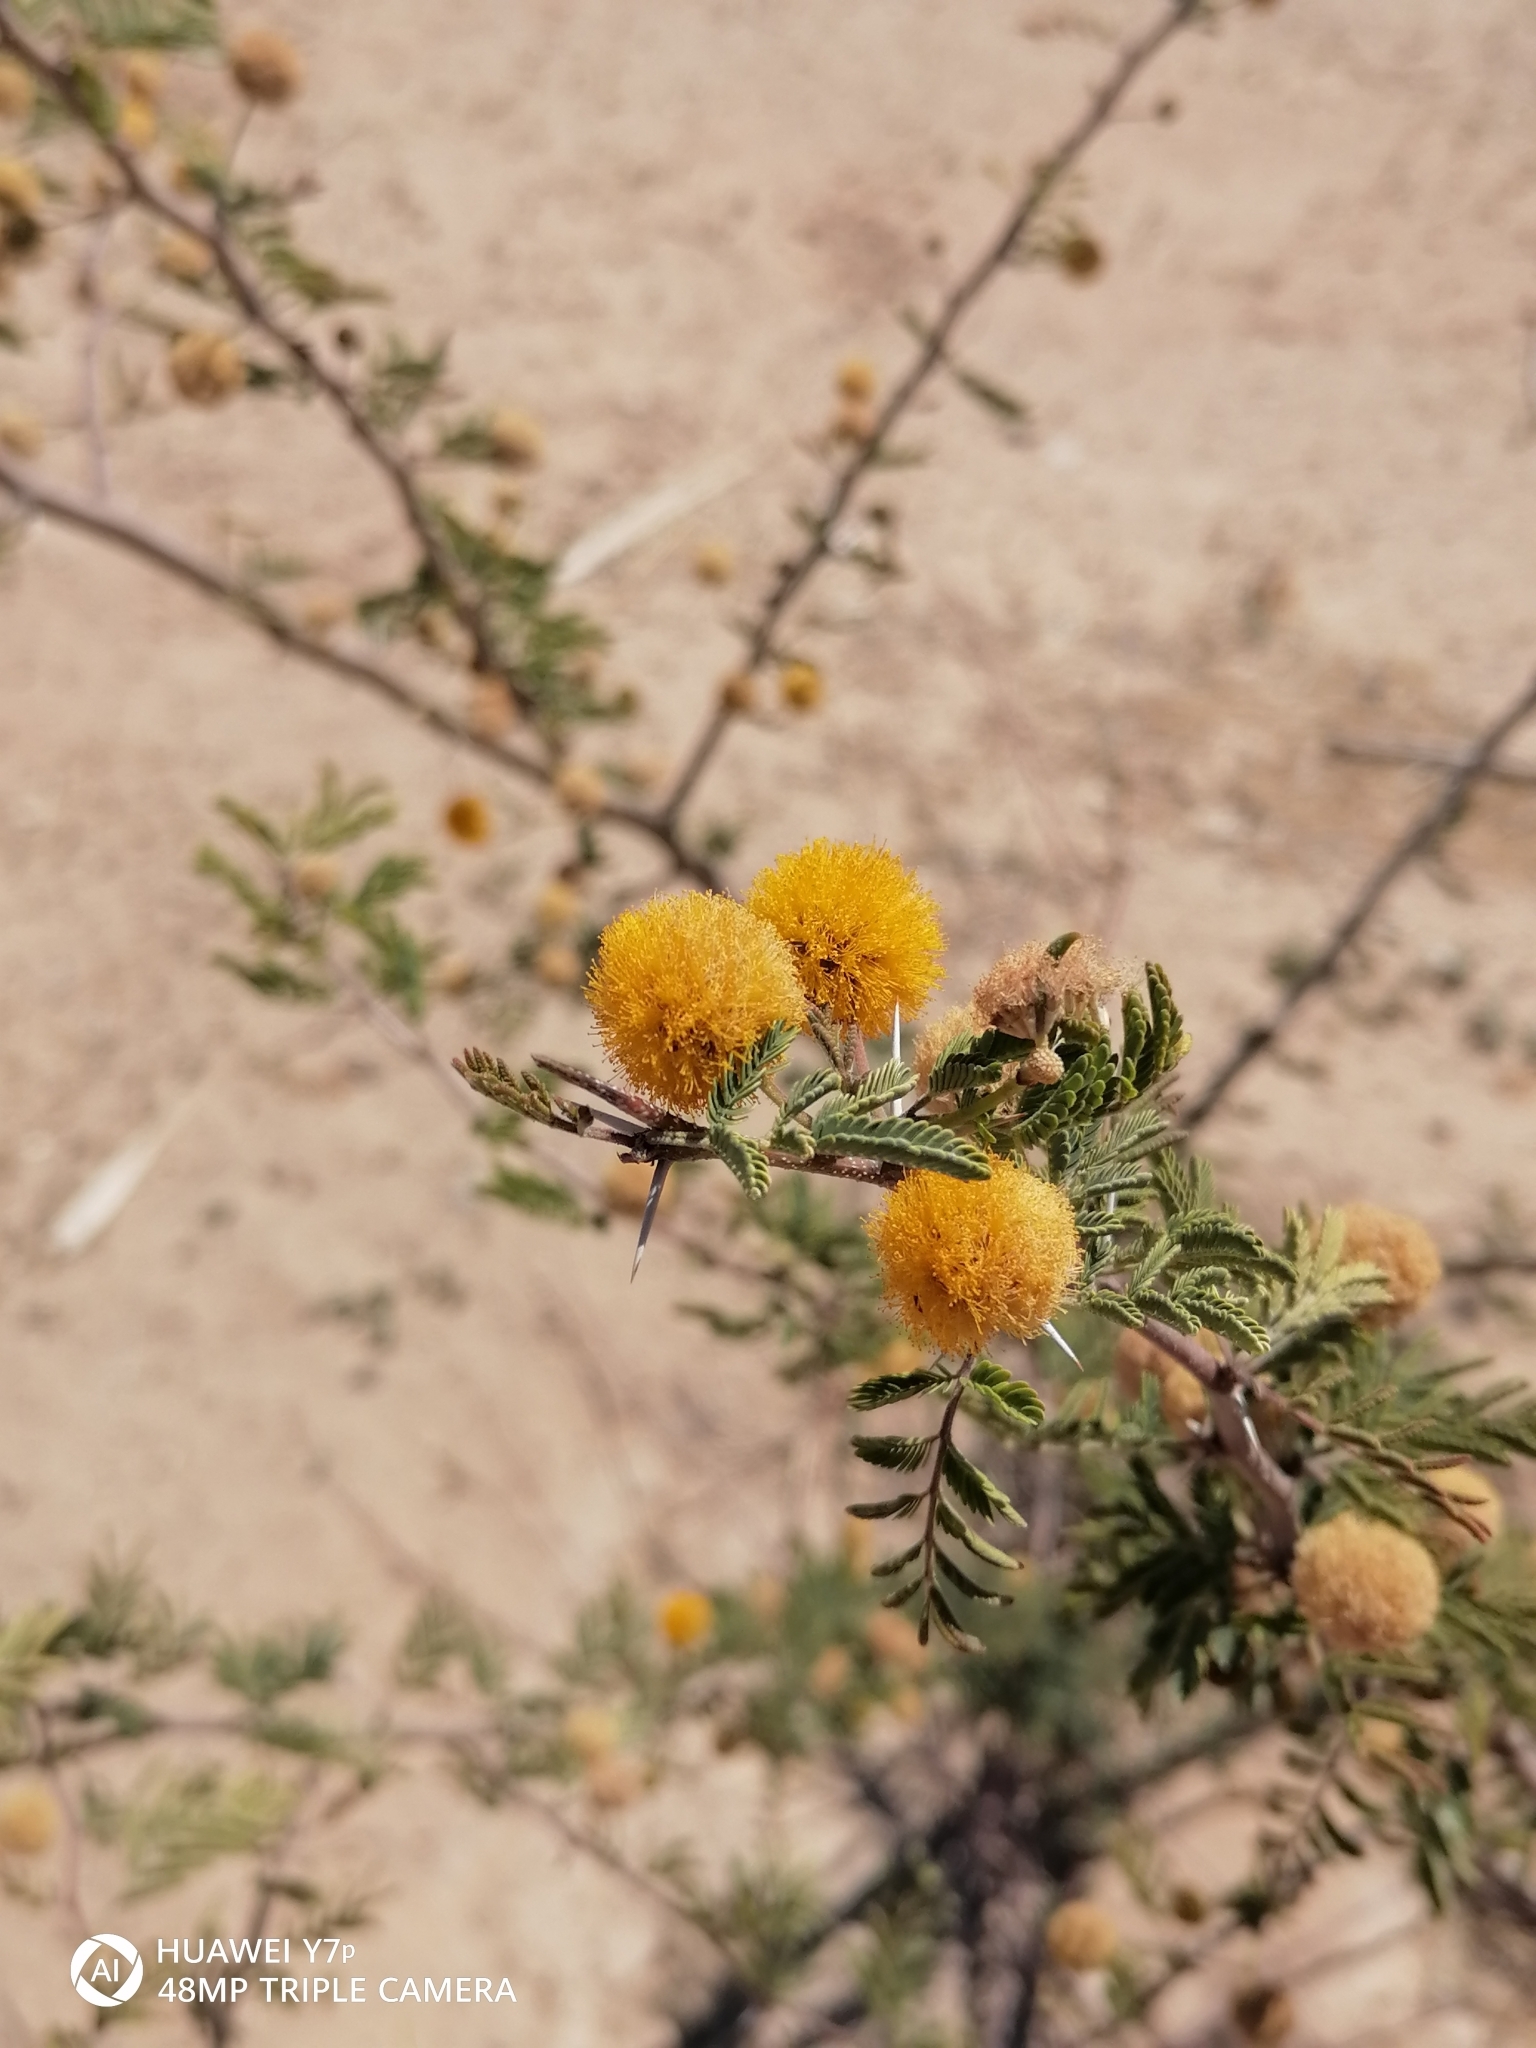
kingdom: Plantae
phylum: Tracheophyta
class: Magnoliopsida
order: Fabales
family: Fabaceae
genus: Vachellia
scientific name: Vachellia farnesiana
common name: Sweet acacia
